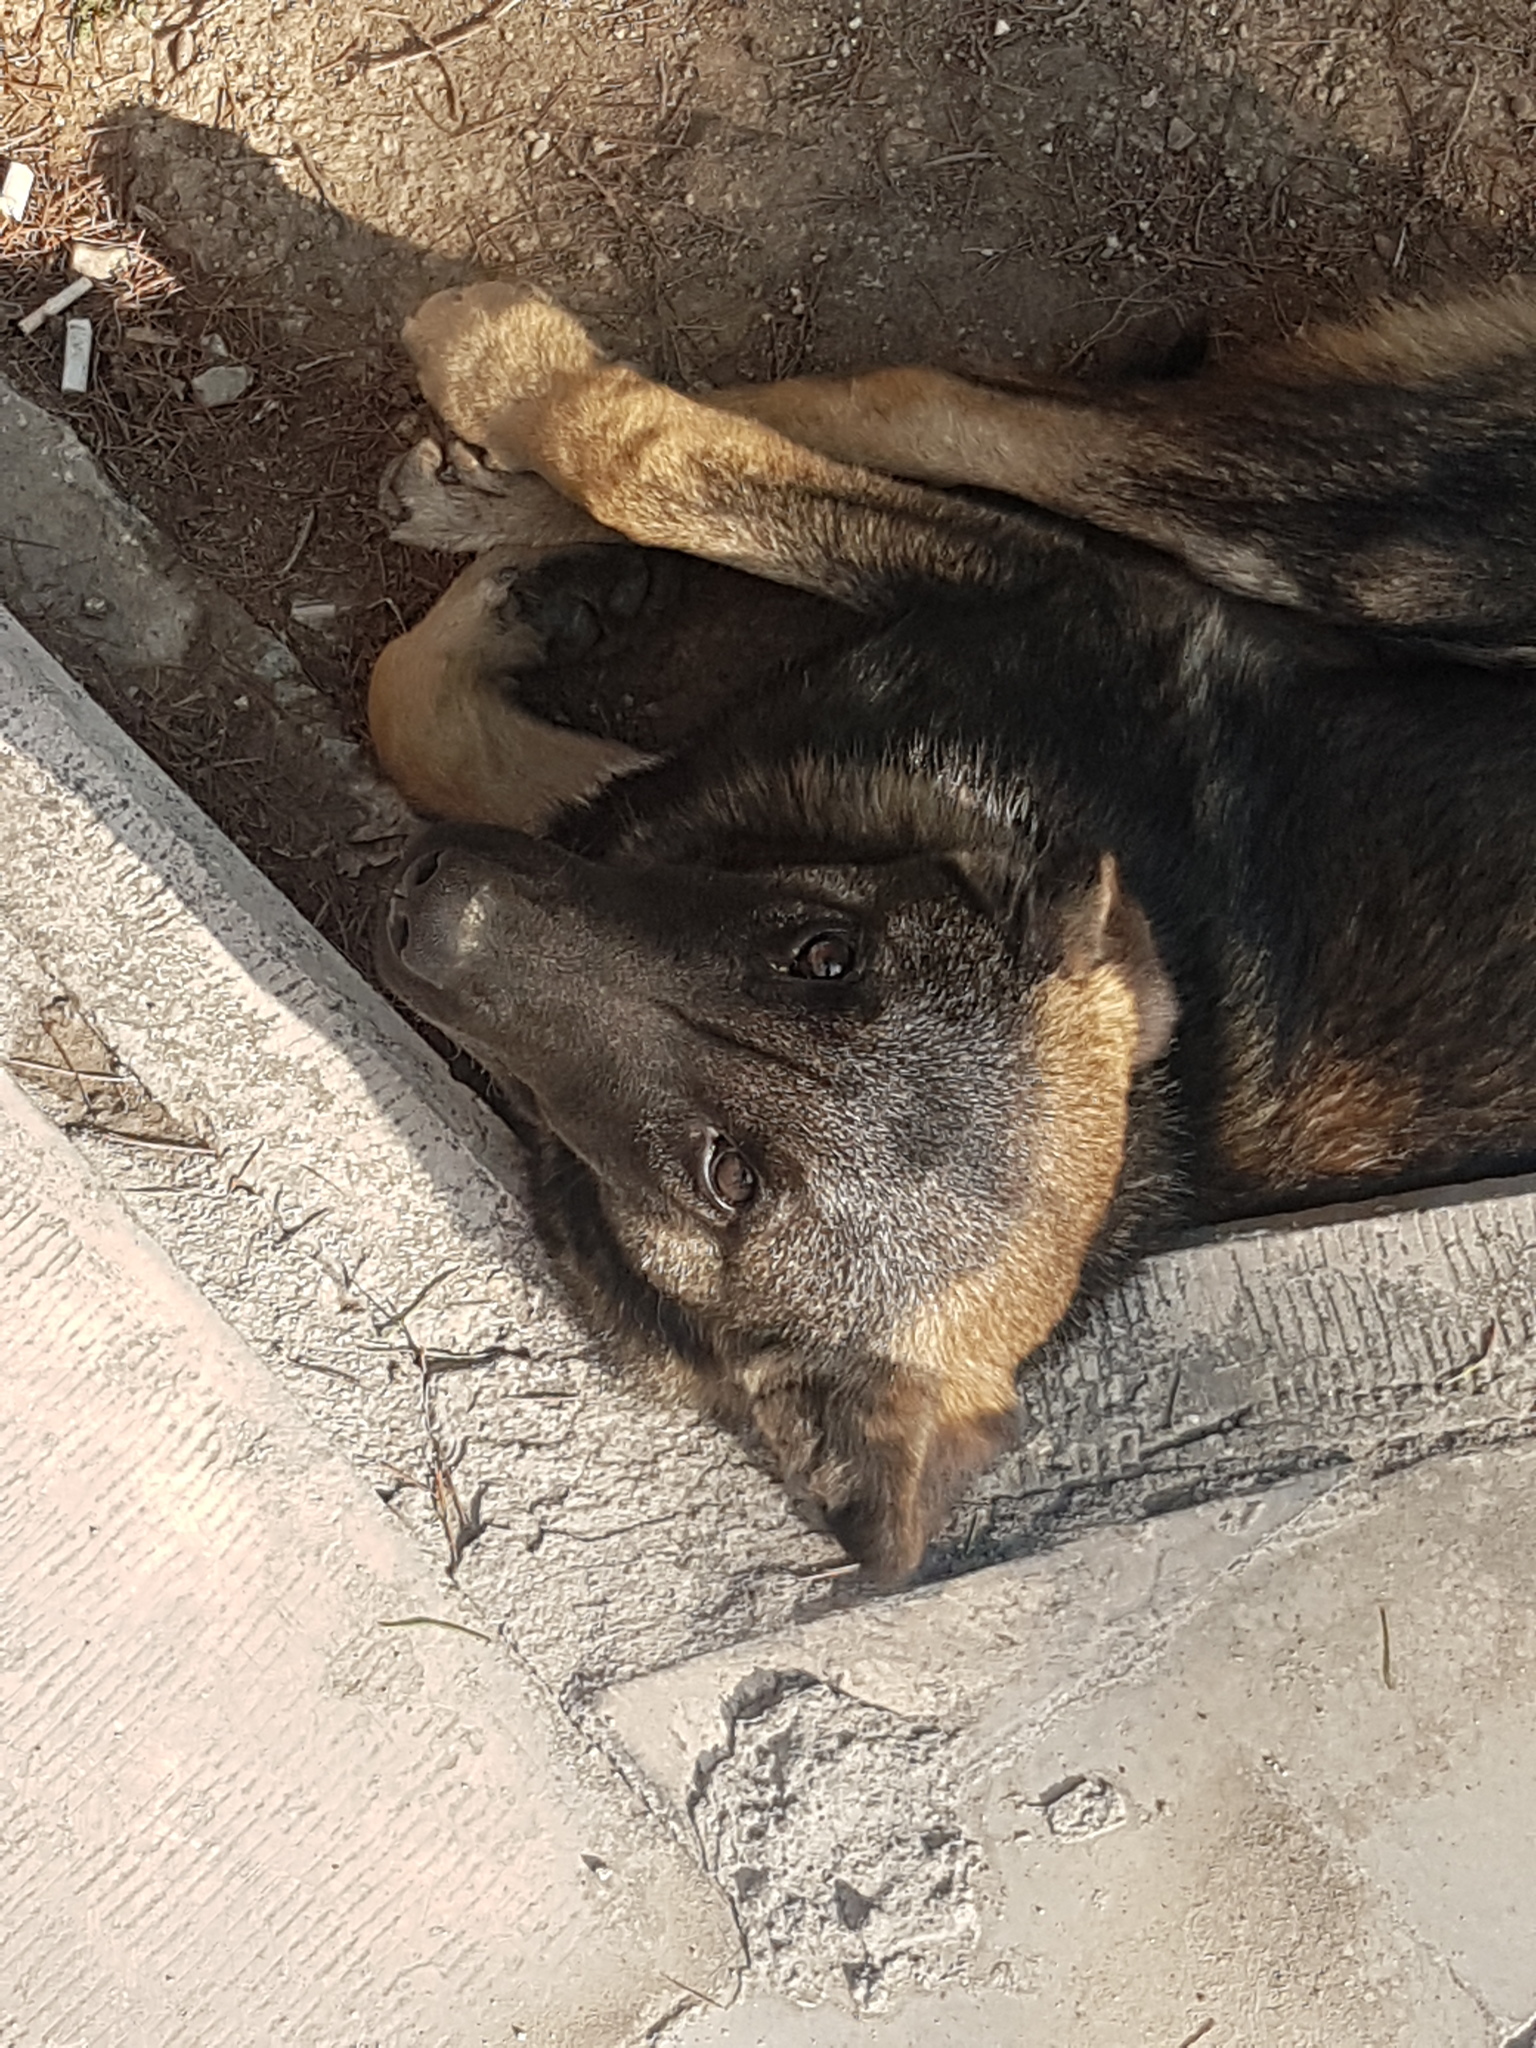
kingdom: Animalia
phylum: Chordata
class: Mammalia
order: Carnivora
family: Canidae
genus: Canis
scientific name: Canis lupus
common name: Gray wolf
